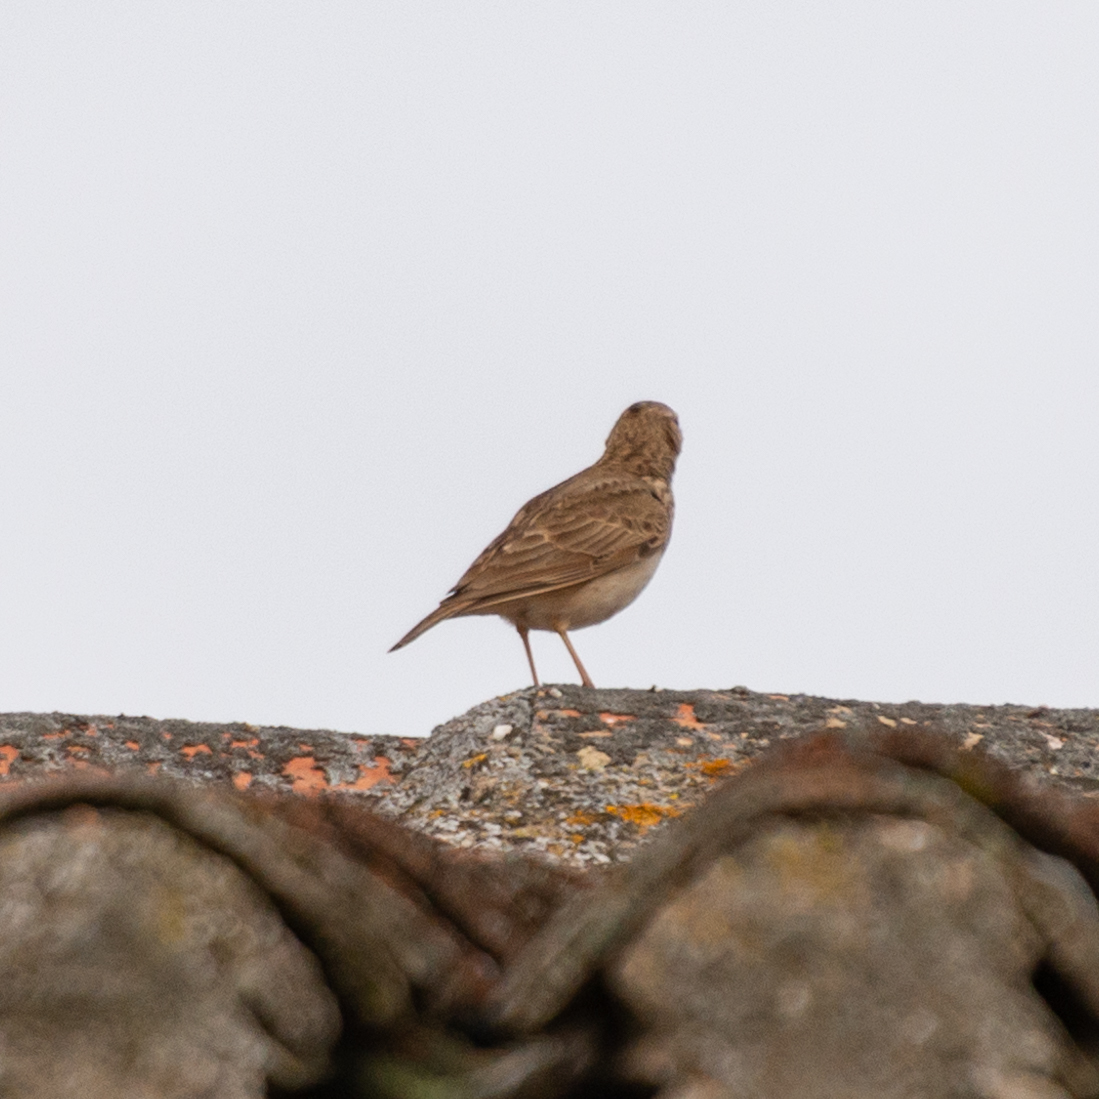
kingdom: Animalia
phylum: Chordata
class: Aves
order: Passeriformes
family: Alaudidae
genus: Galerida
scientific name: Galerida cristata
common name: Crested lark
